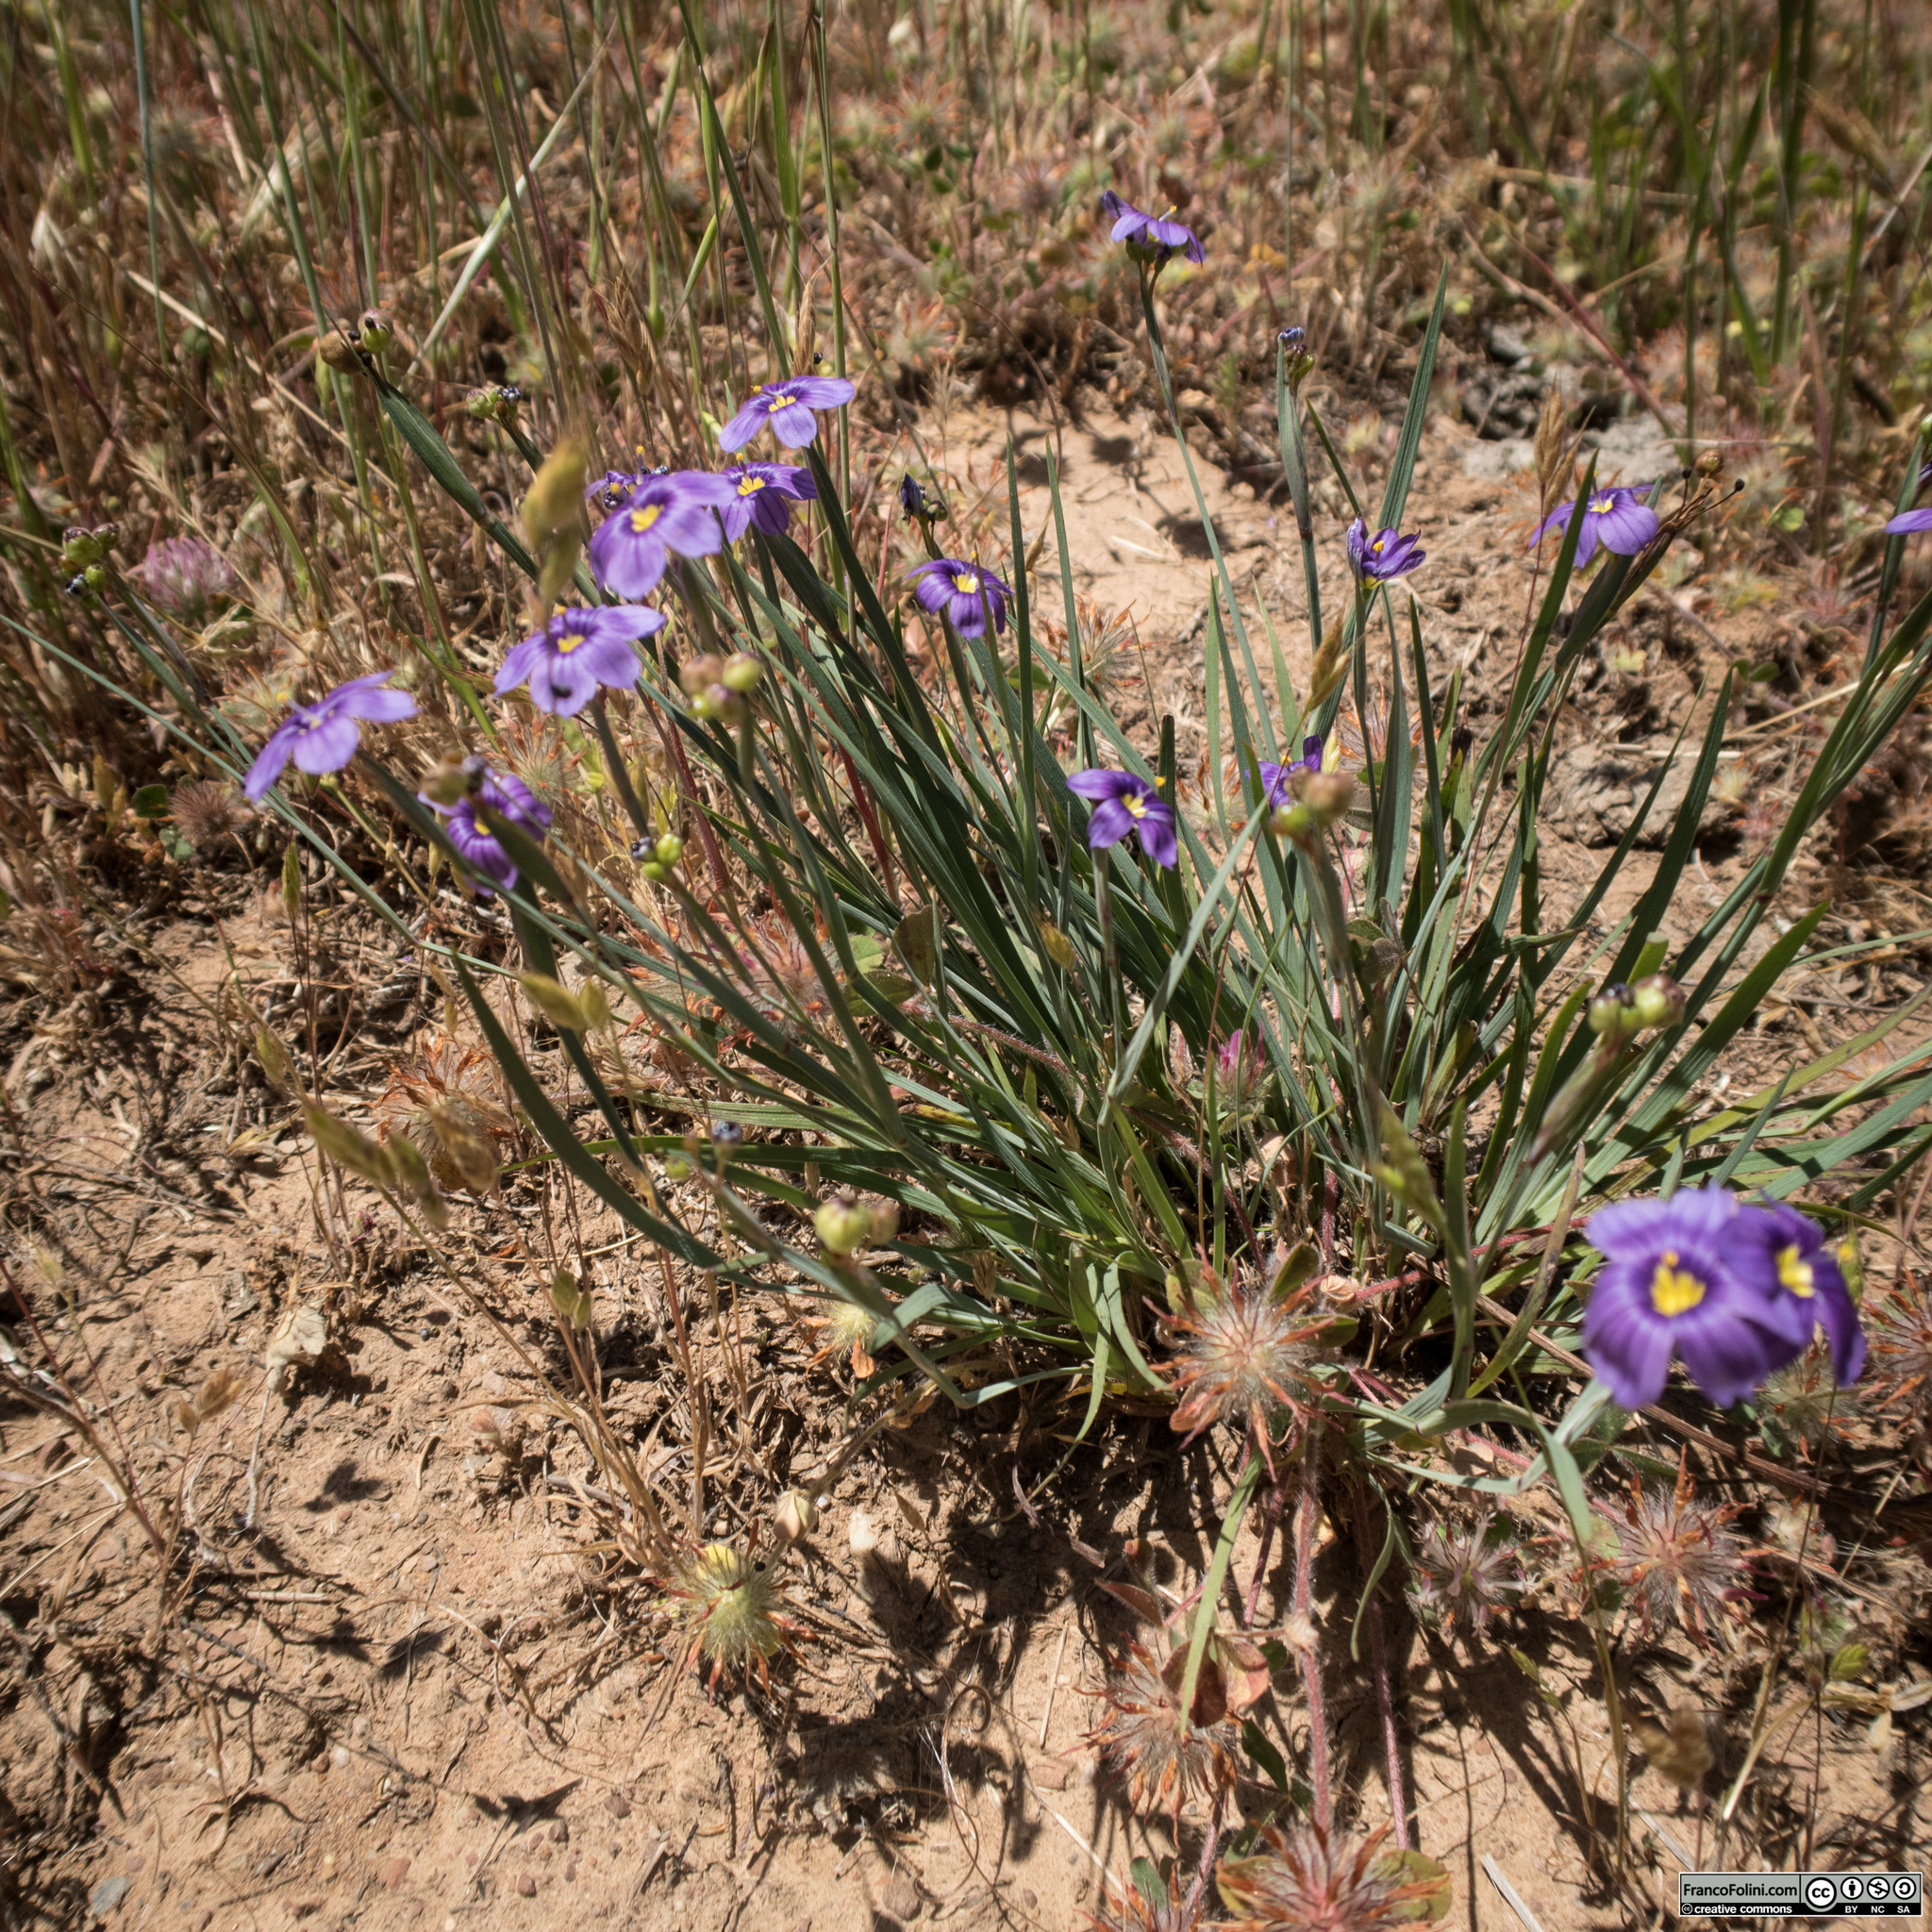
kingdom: Plantae
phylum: Tracheophyta
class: Liliopsida
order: Asparagales
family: Iridaceae
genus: Sisyrinchium
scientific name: Sisyrinchium bellum
